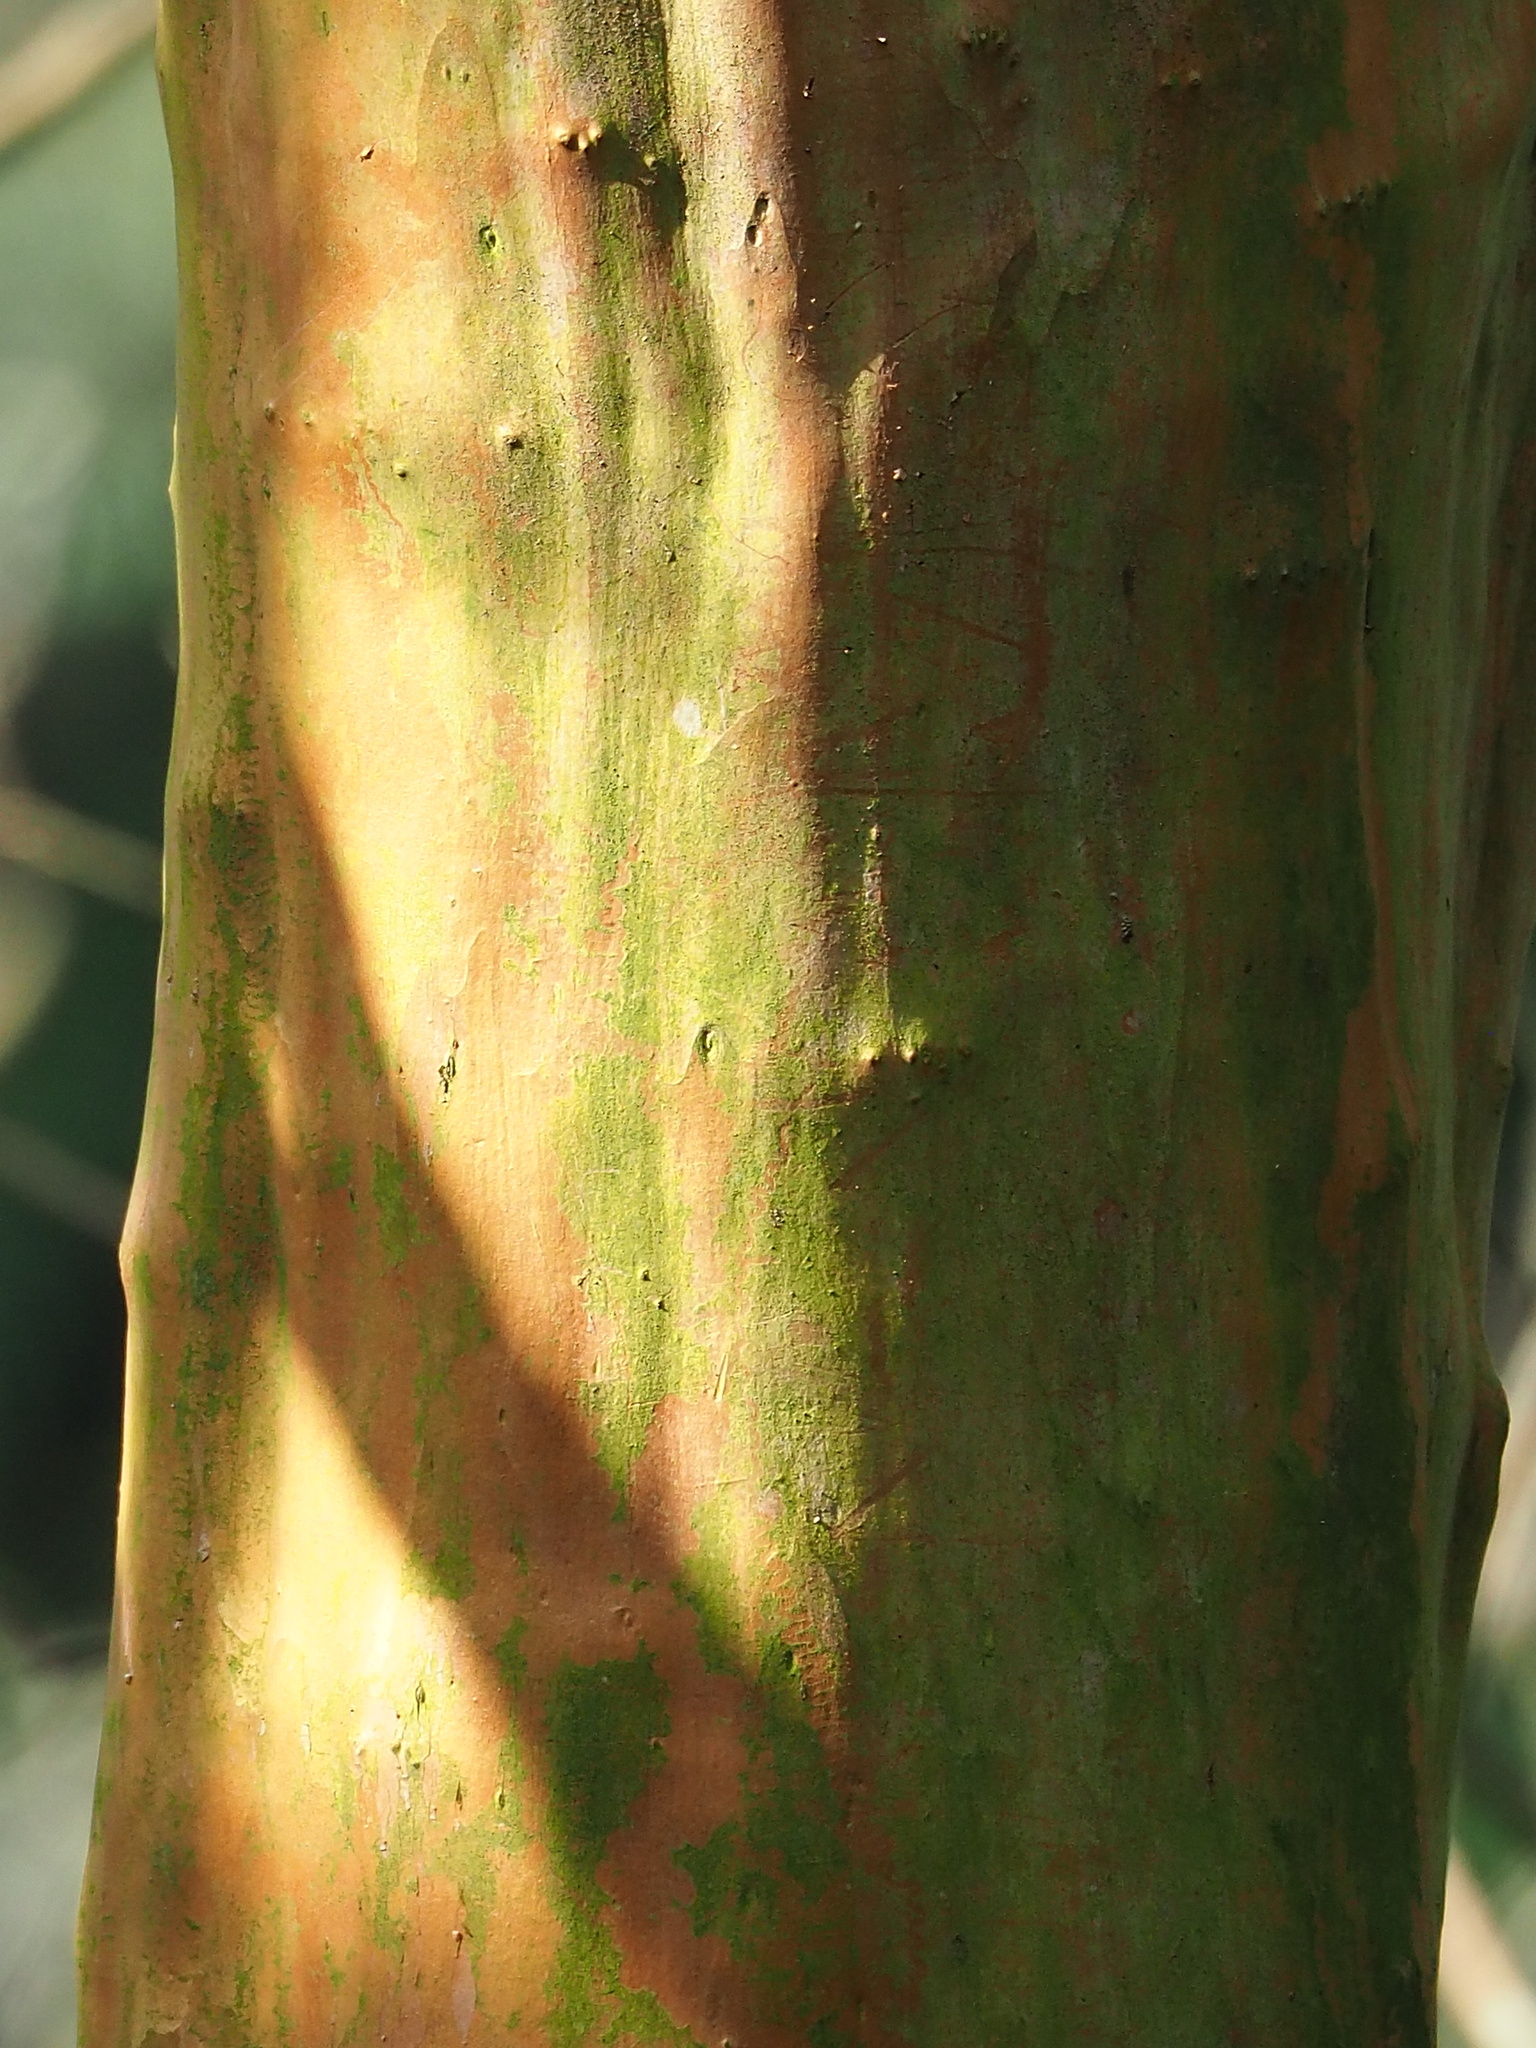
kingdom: Plantae
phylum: Tracheophyta
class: Magnoliopsida
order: Myrtales
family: Lythraceae
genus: Lagerstroemia
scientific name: Lagerstroemia subcostata
